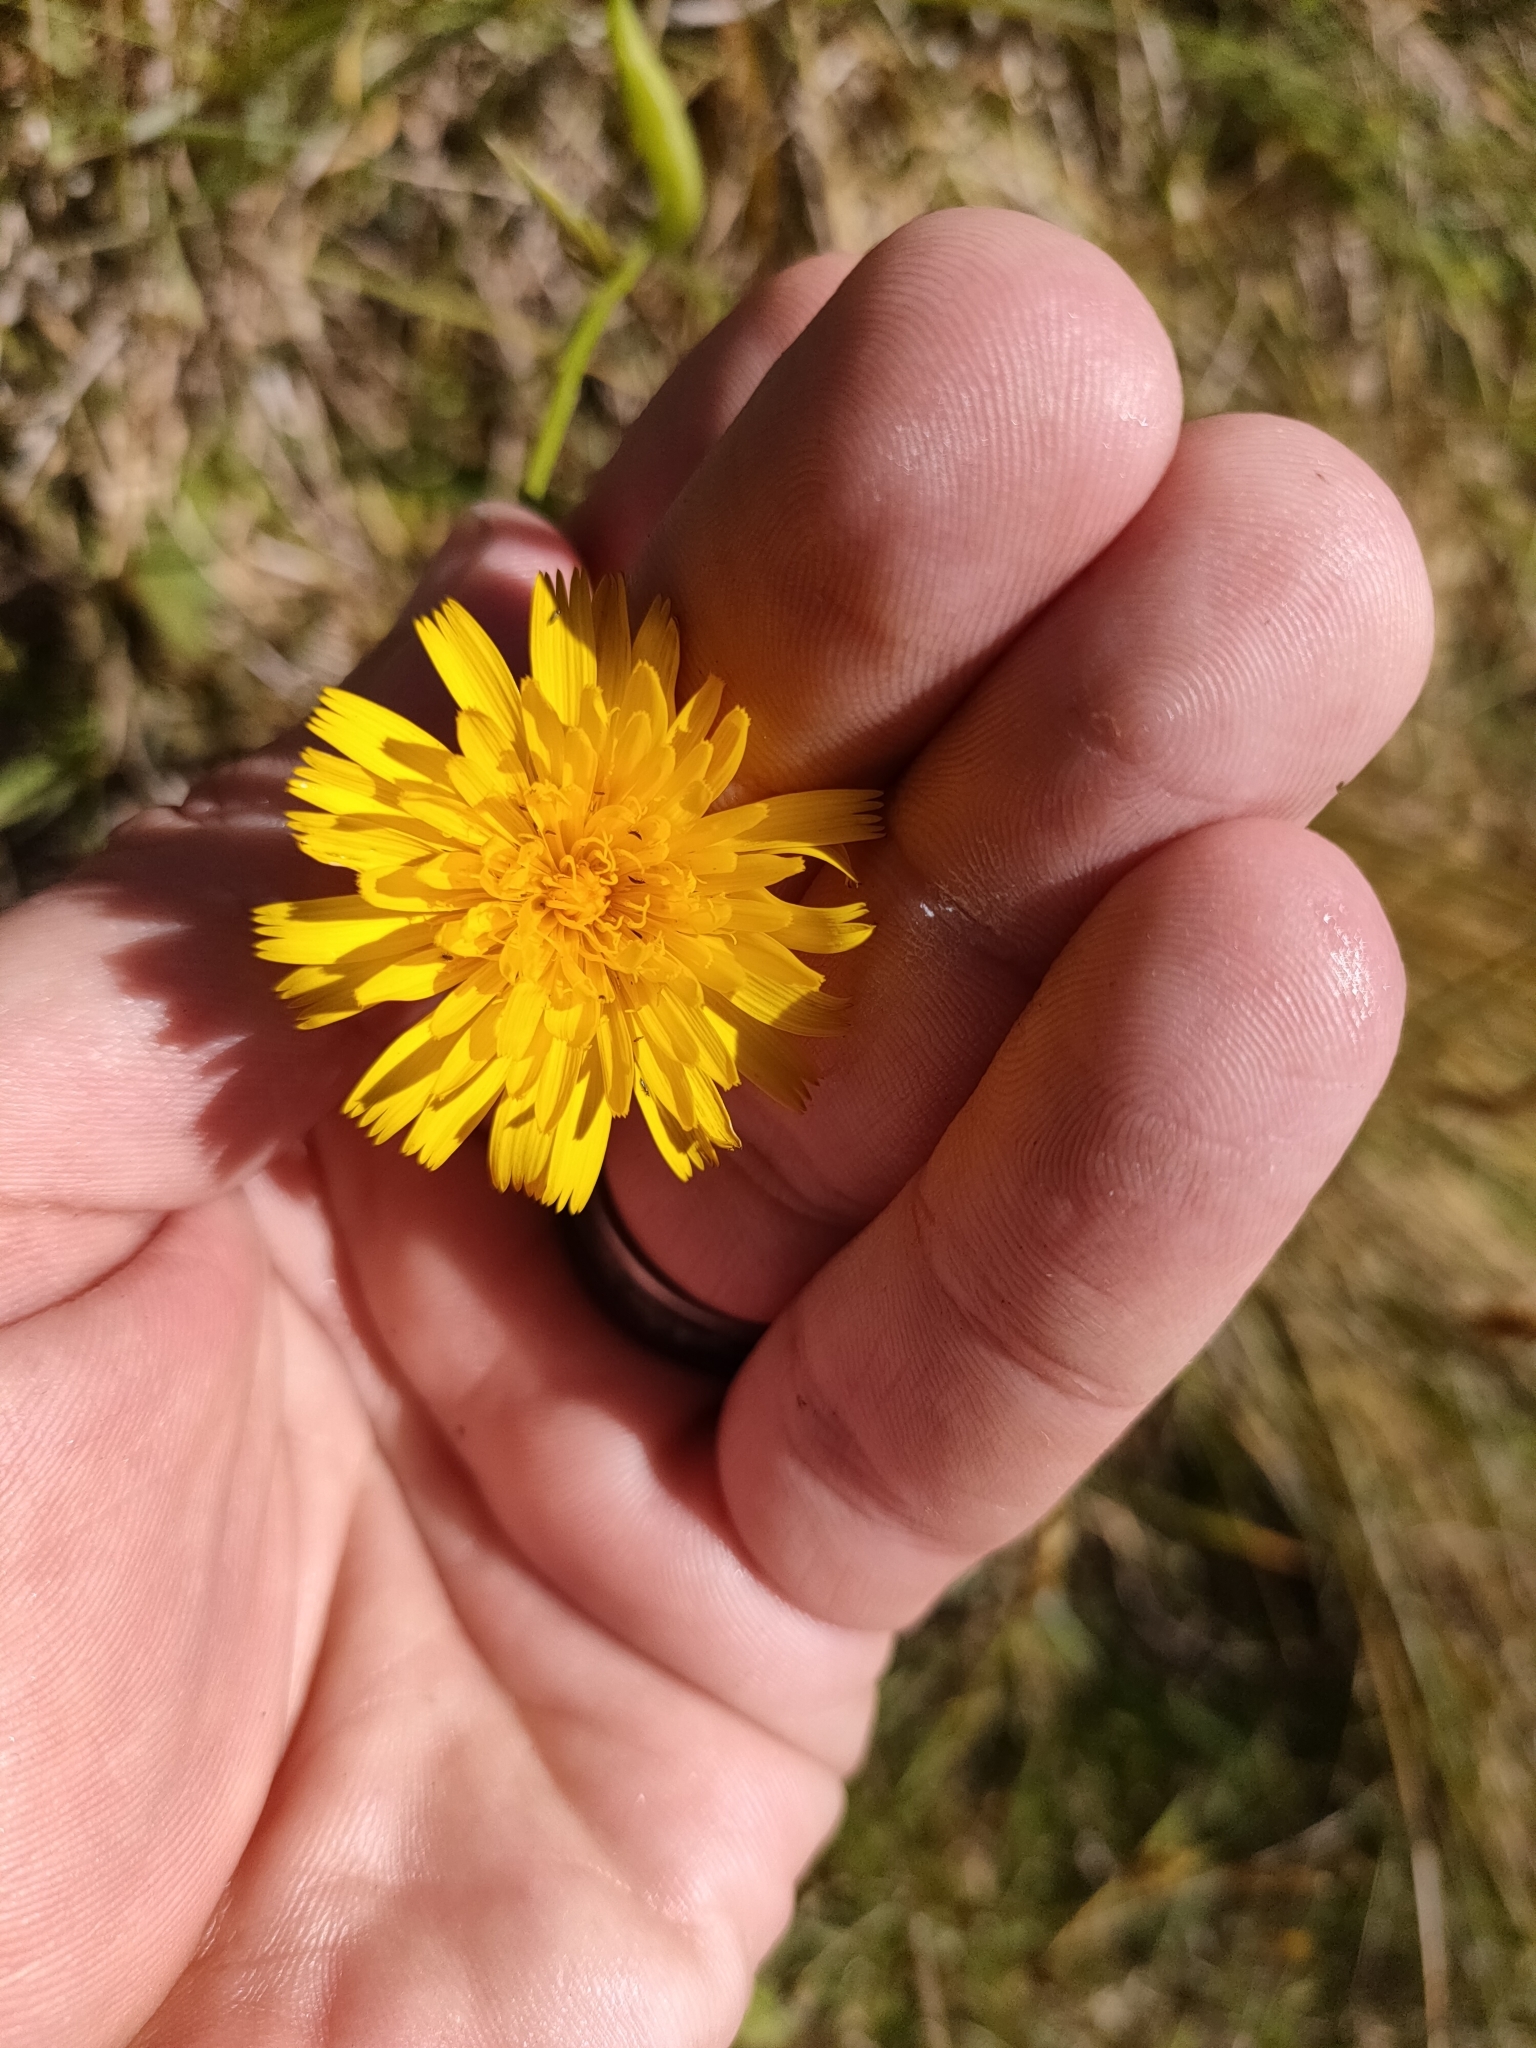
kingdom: Animalia
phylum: Arthropoda
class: Insecta
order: Hymenoptera
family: Cynipidae
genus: Phanacis
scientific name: Phanacis hypochoeridis
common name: Gall wasp
